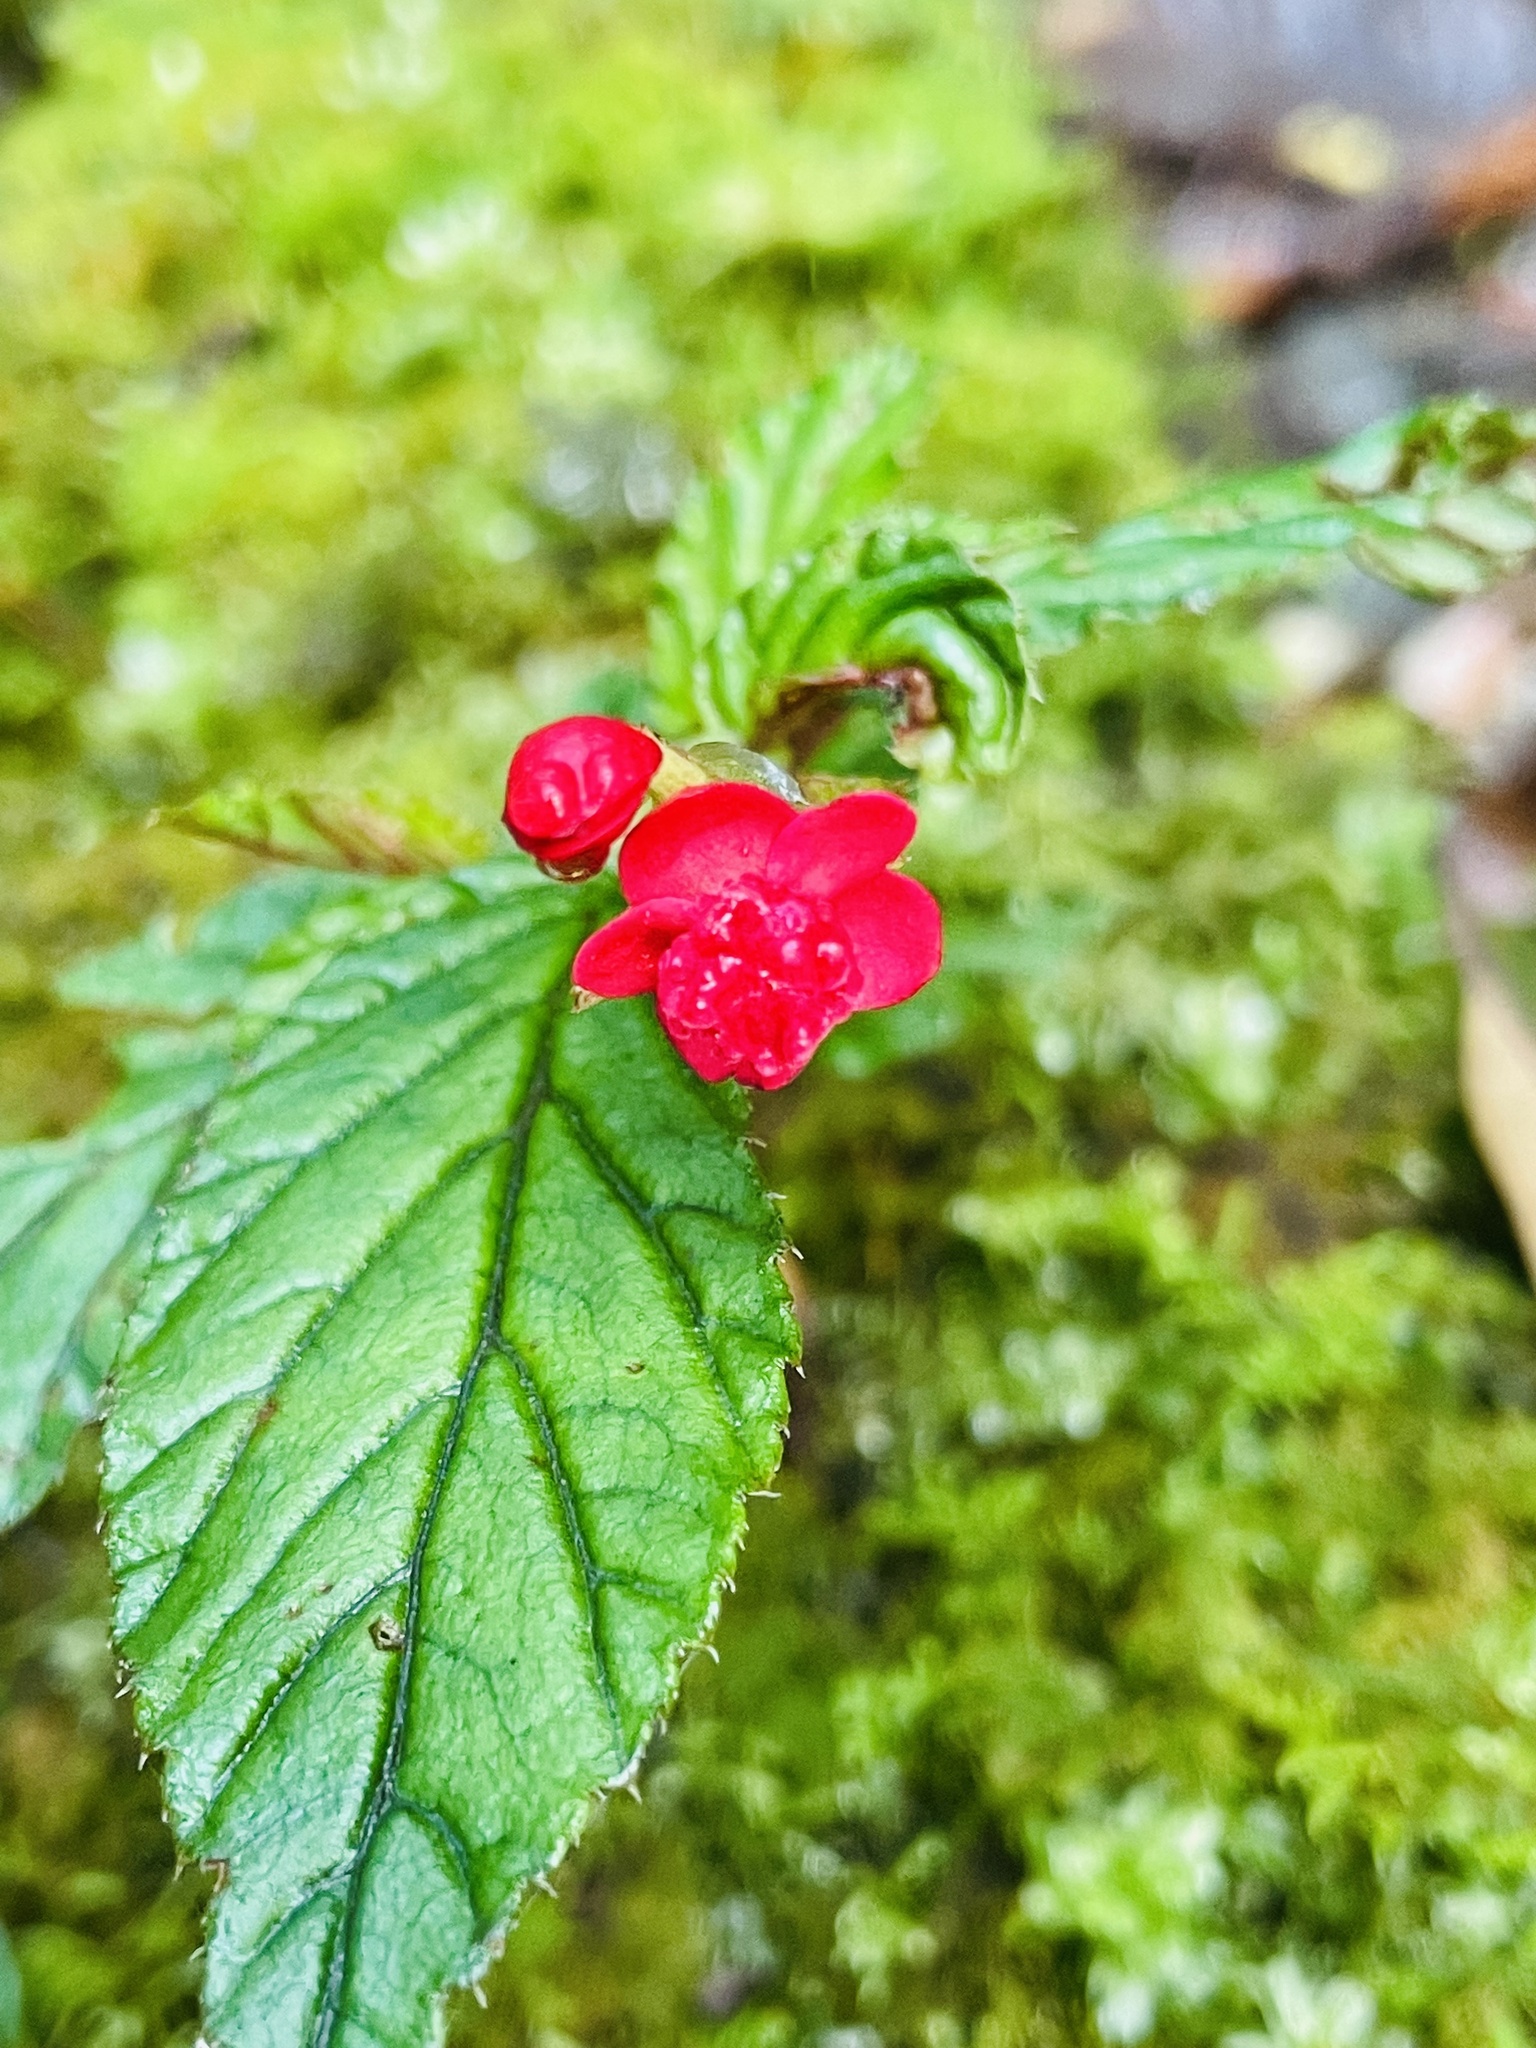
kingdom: Plantae
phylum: Tracheophyta
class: Magnoliopsida
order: Cucurbitales
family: Begoniaceae
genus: Begonia
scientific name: Begonia urticae
